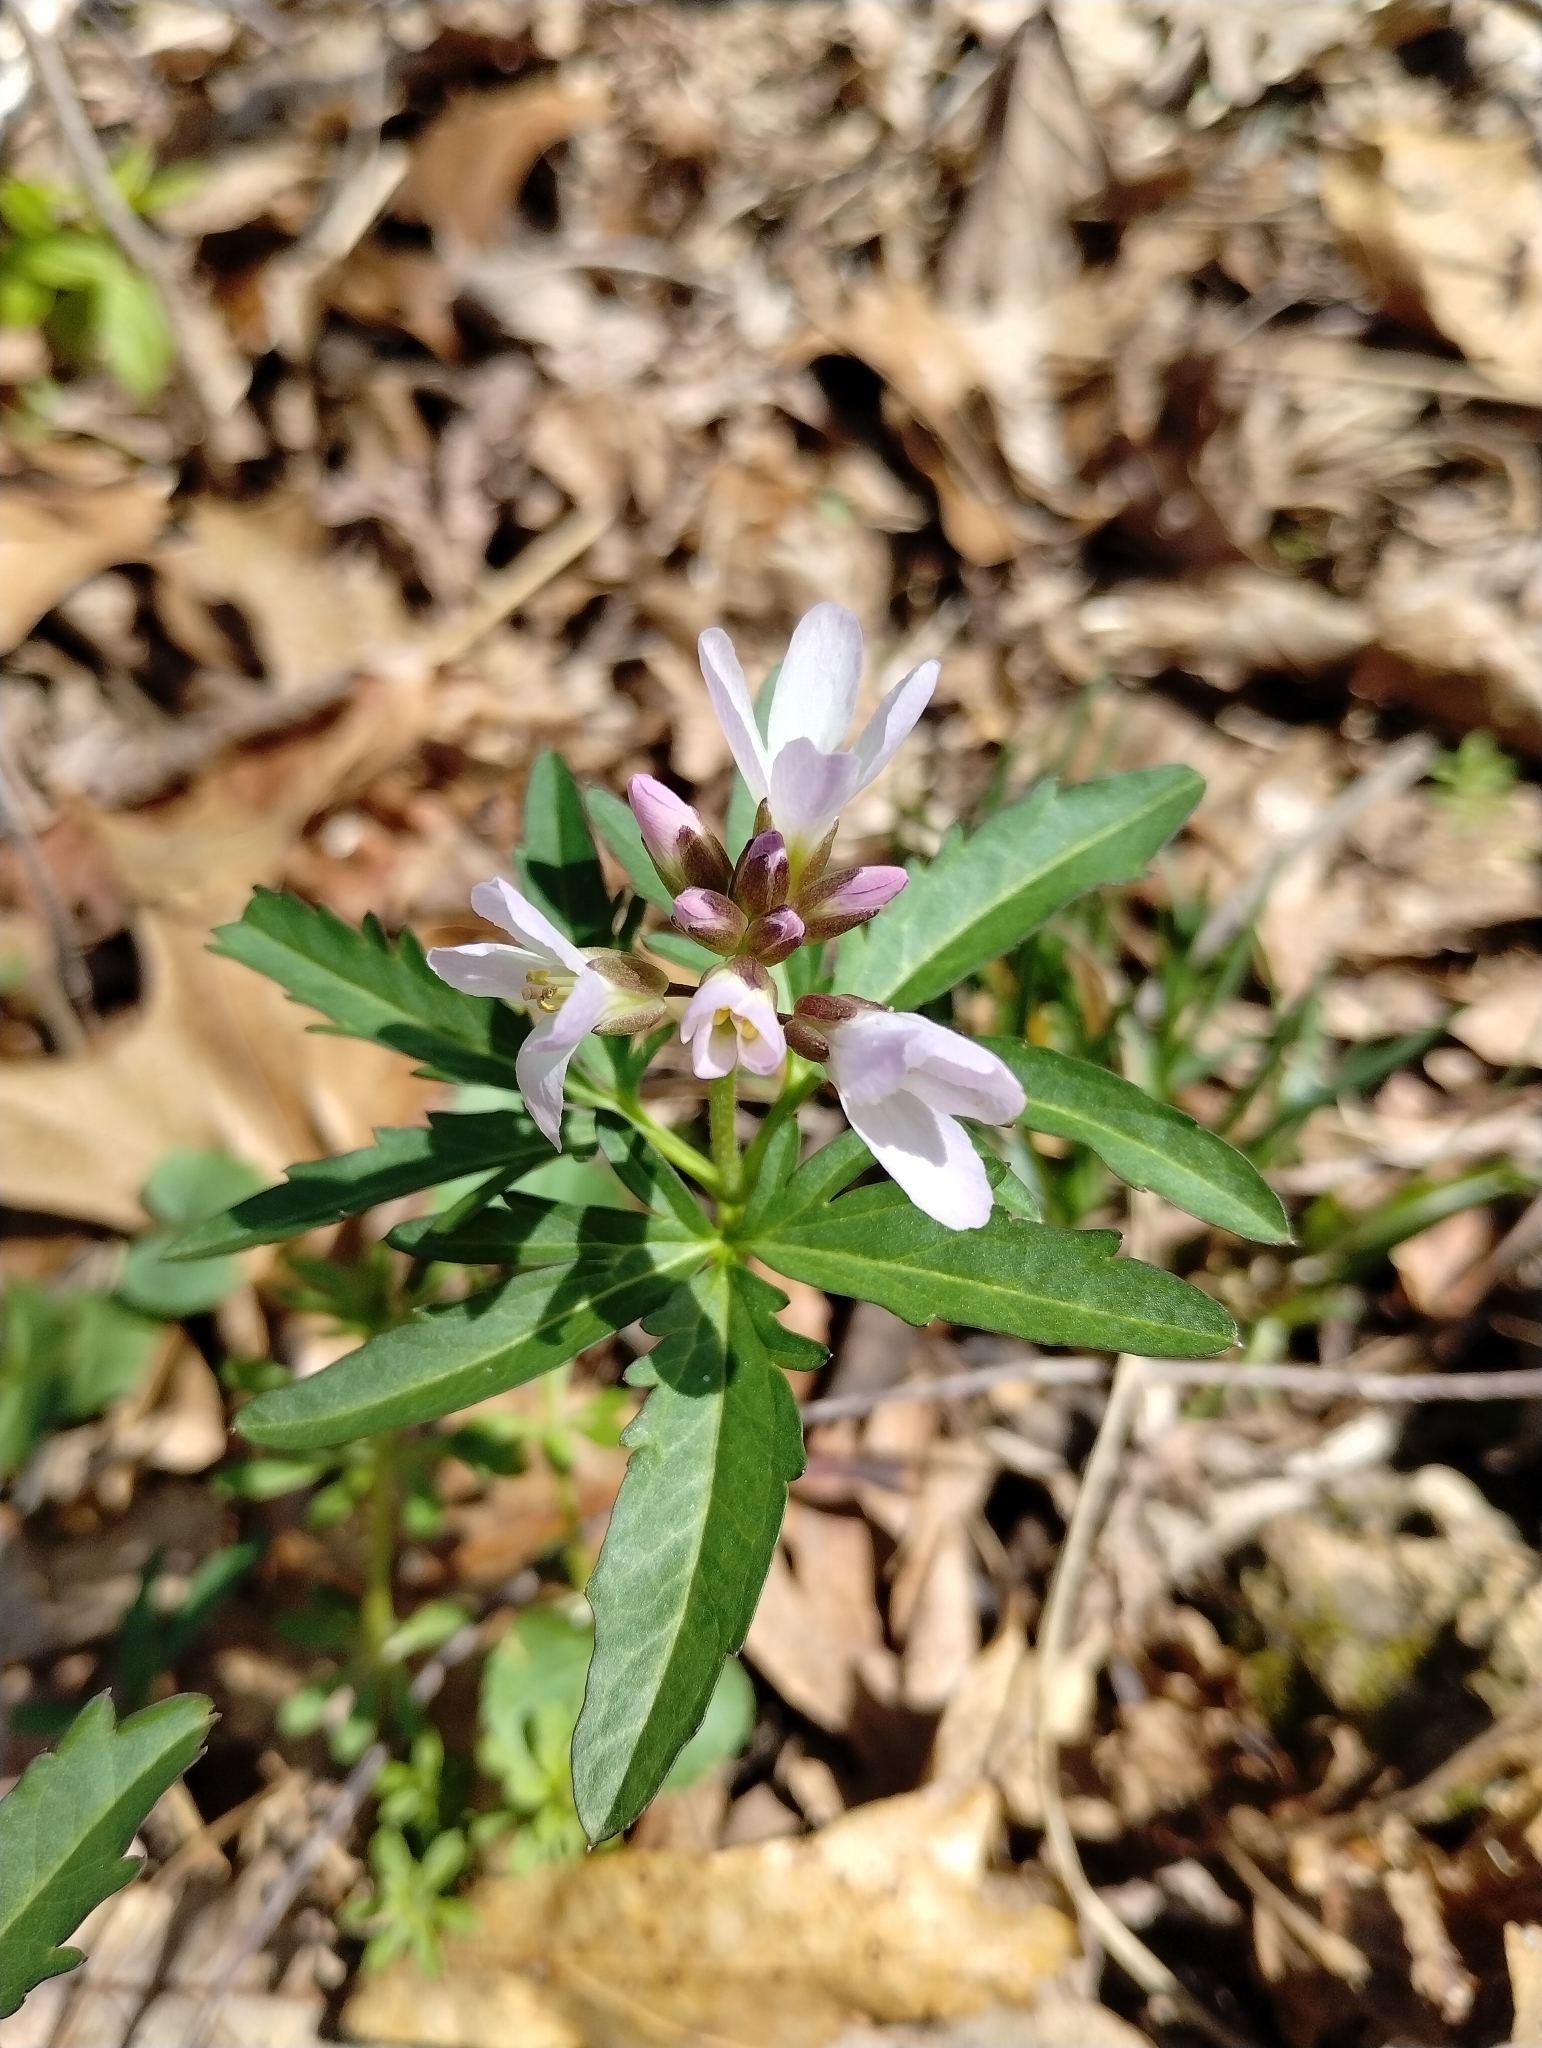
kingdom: Plantae
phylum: Tracheophyta
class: Magnoliopsida
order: Brassicales
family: Brassicaceae
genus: Cardamine
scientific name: Cardamine concatenata
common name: Cut-leaf toothcup
